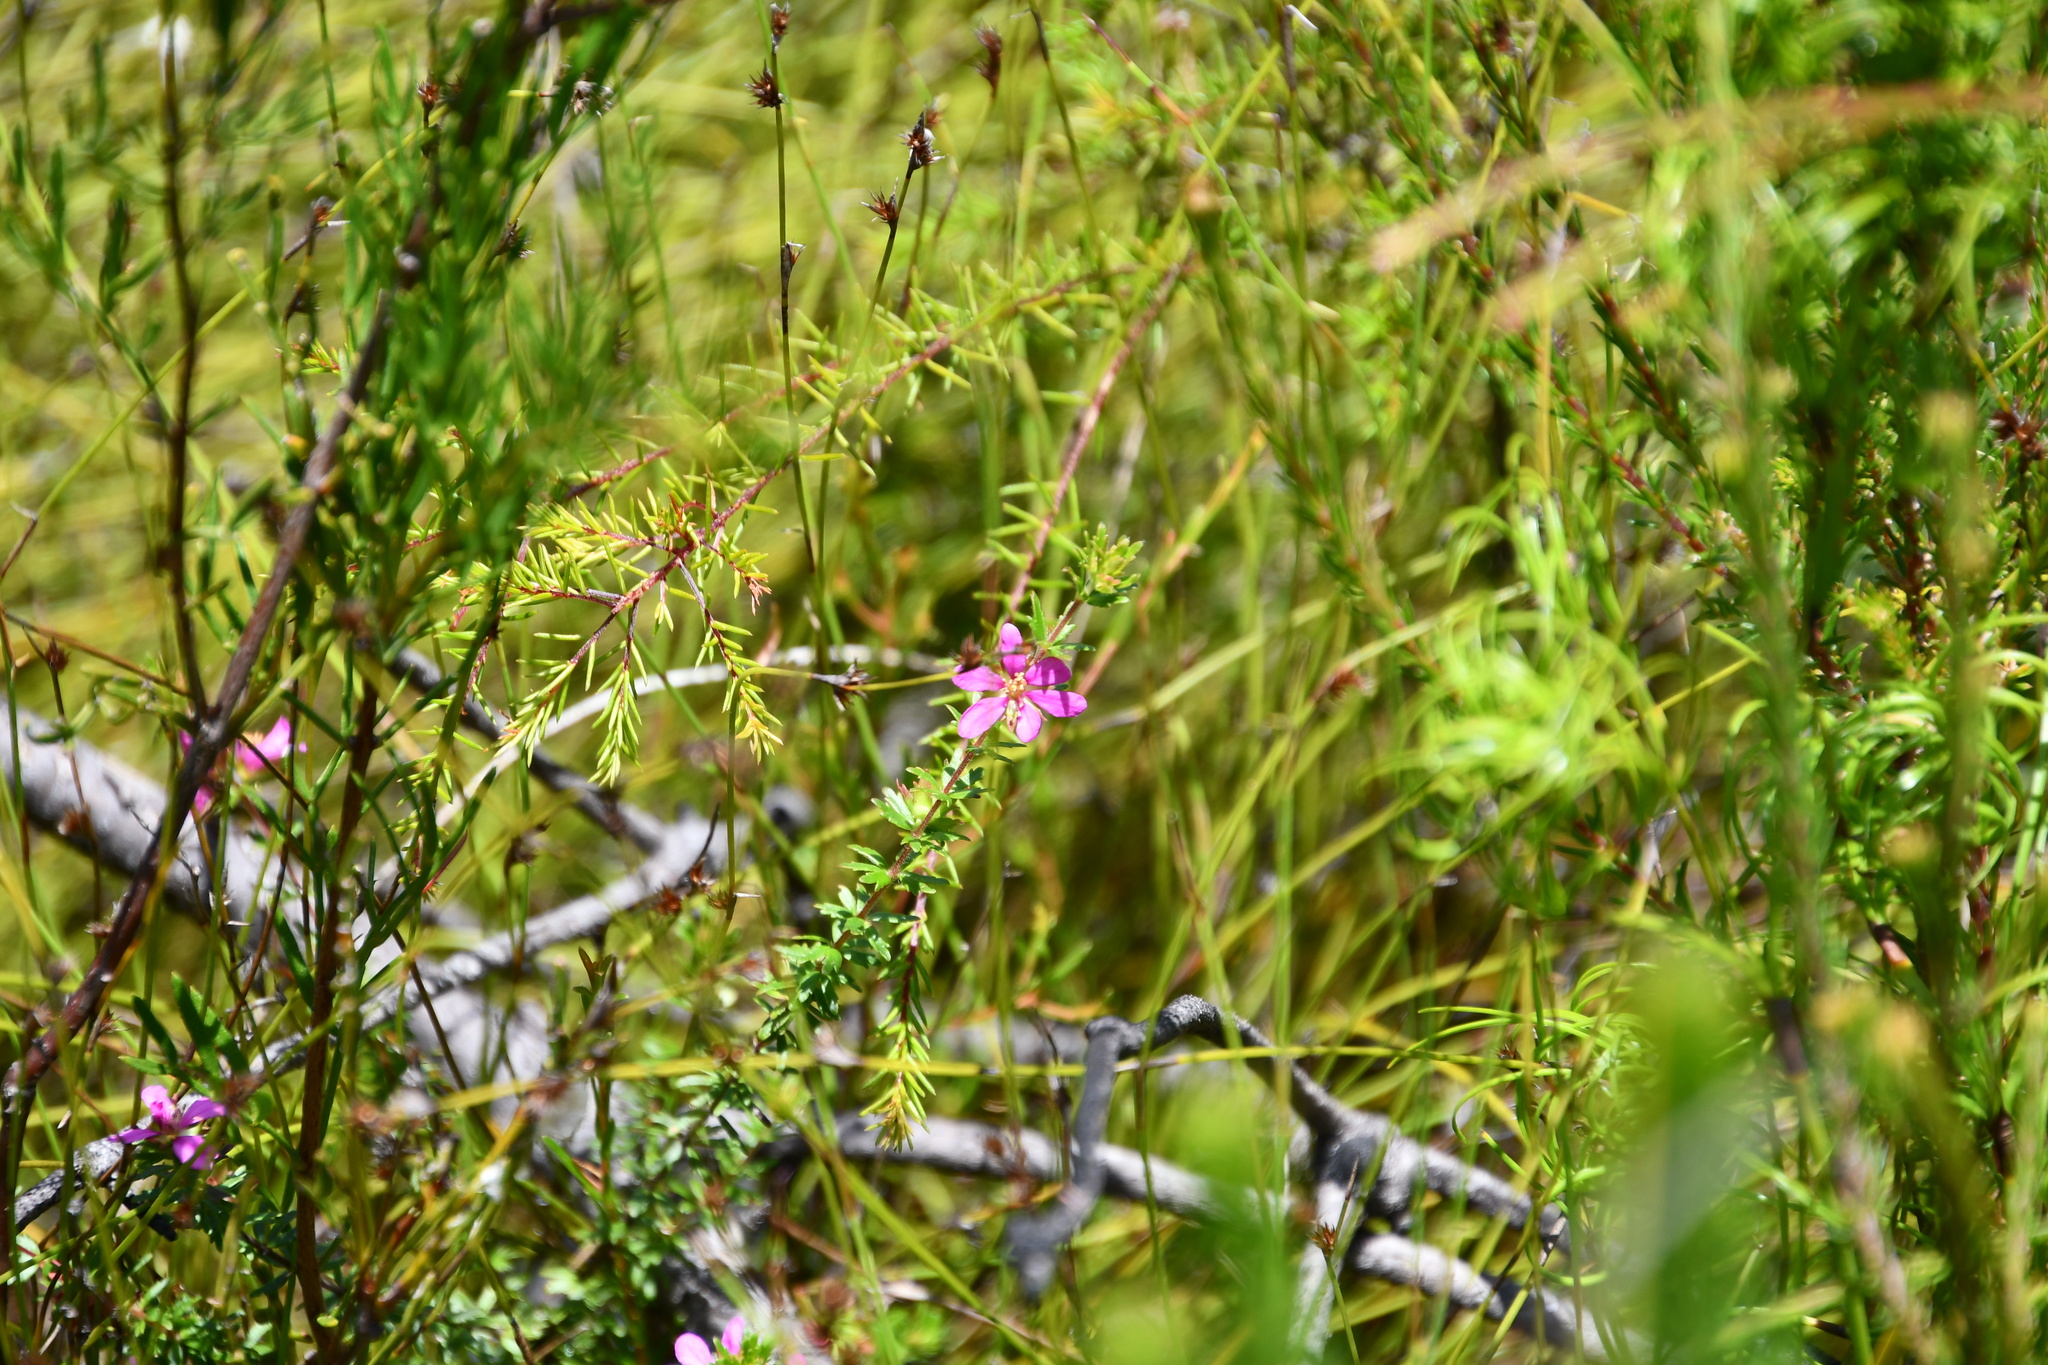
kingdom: Plantae
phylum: Tracheophyta
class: Magnoliopsida
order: Oxalidales
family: Cunoniaceae
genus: Bauera
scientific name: Bauera capitata
